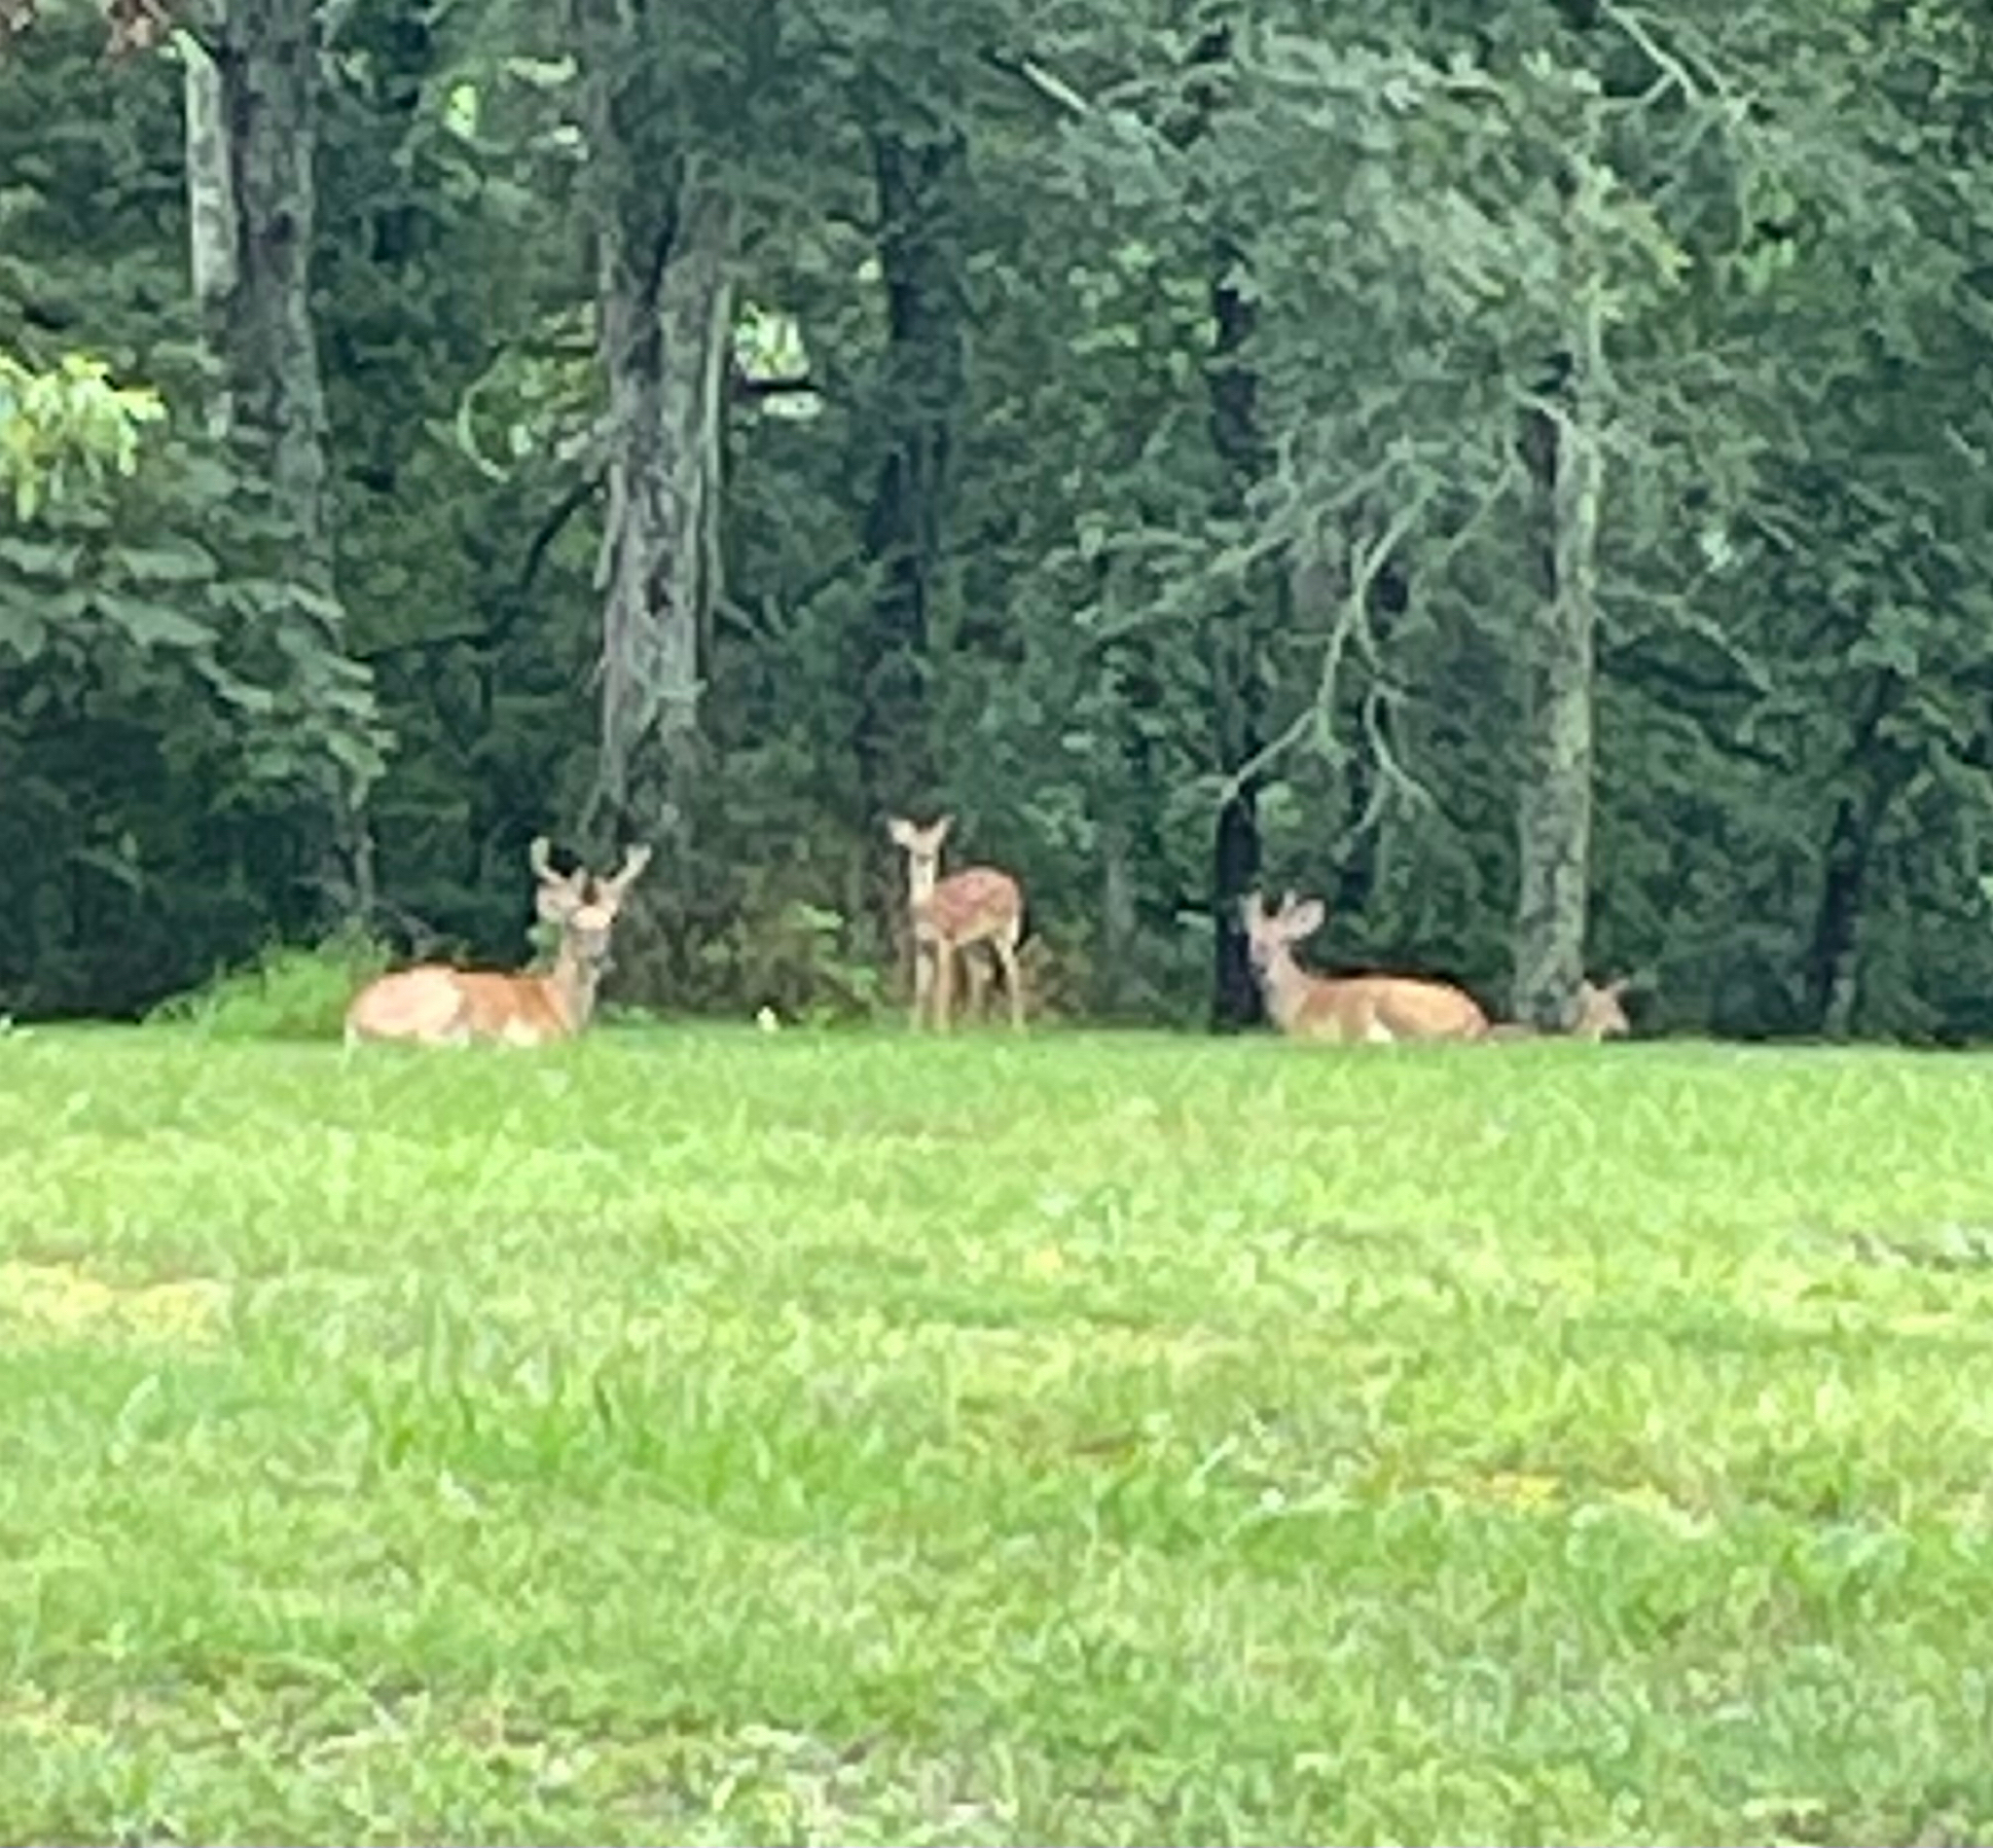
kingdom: Animalia
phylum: Chordata
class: Mammalia
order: Artiodactyla
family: Cervidae
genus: Odocoileus
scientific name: Odocoileus virginianus
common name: White-tailed deer
